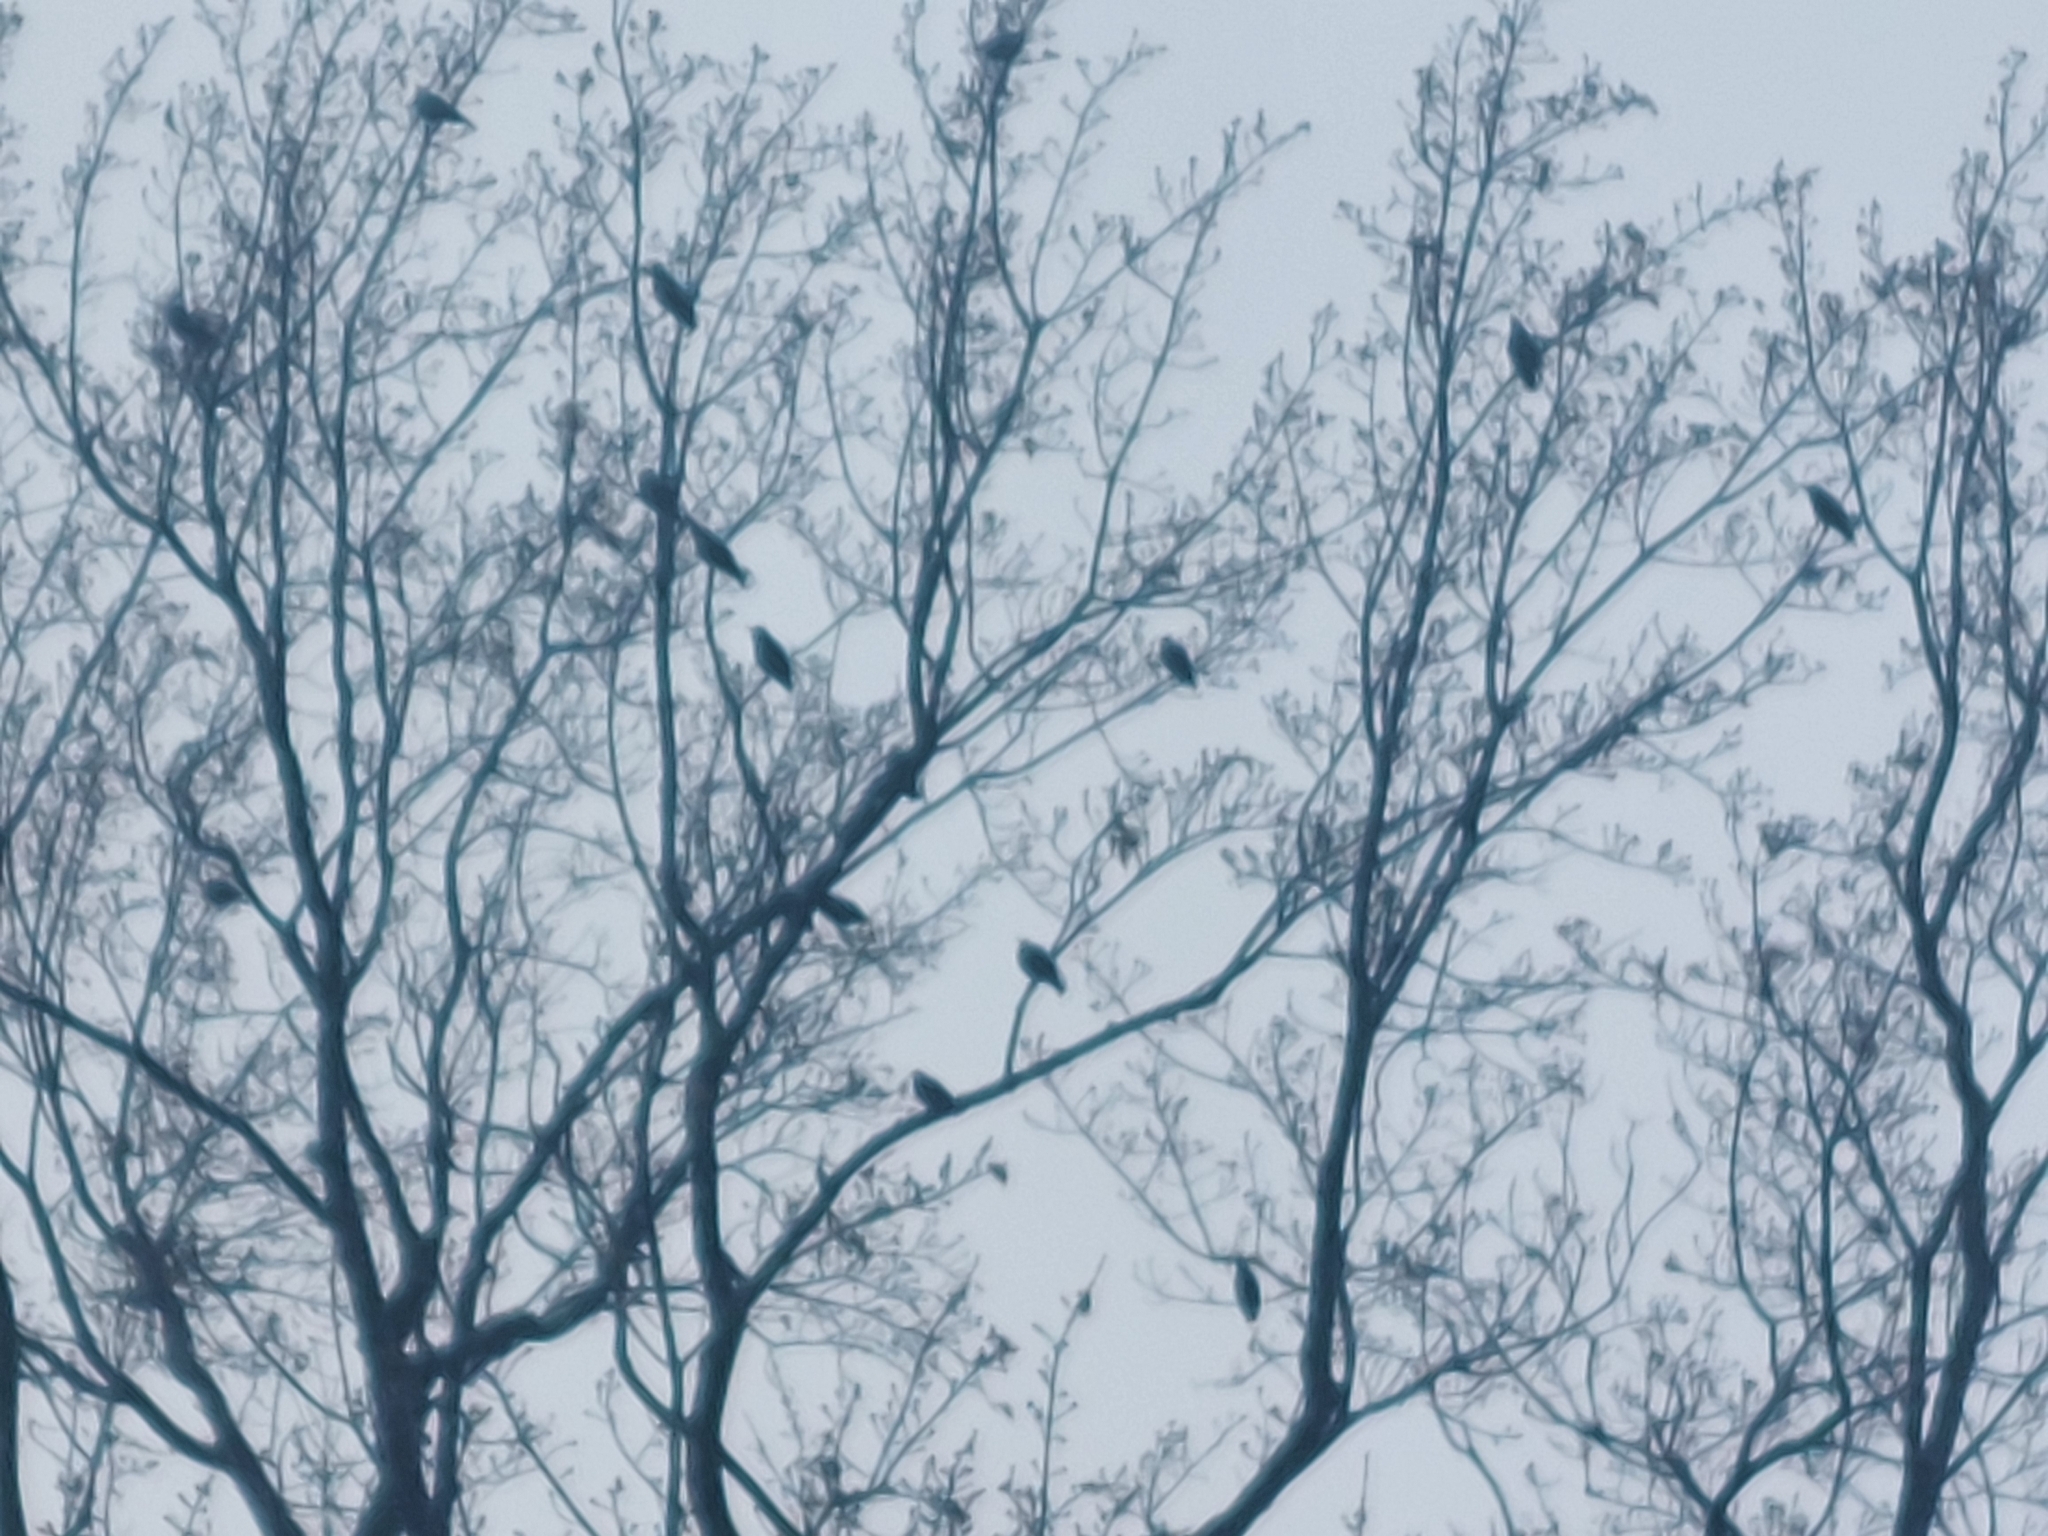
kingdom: Animalia
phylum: Chordata
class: Aves
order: Passeriformes
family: Sturnidae
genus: Sturnus
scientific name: Sturnus vulgaris
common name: Common starling
